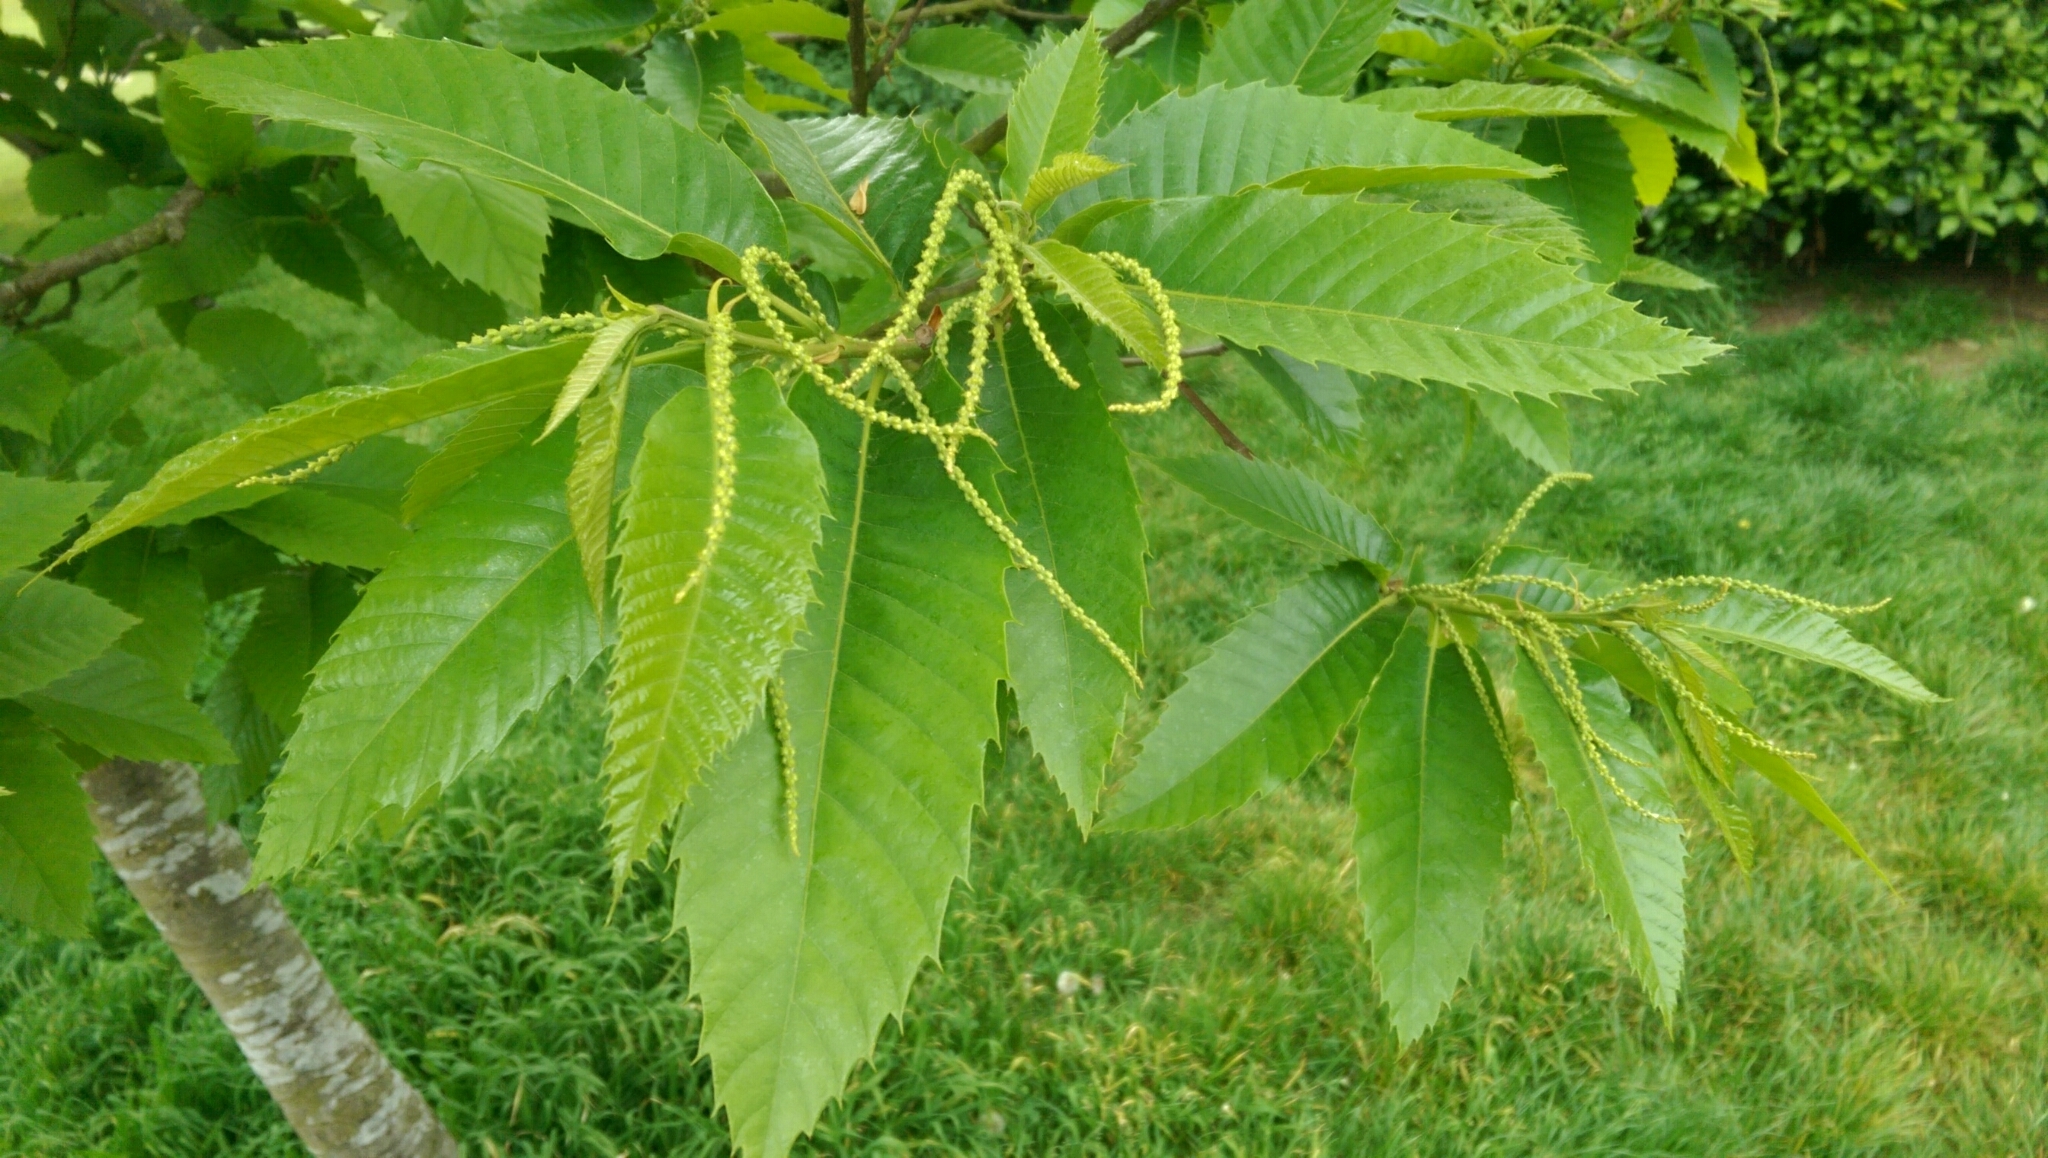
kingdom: Plantae
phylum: Tracheophyta
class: Magnoliopsida
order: Fagales
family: Fagaceae
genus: Castanea
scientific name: Castanea sativa
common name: Sweet chestnut
